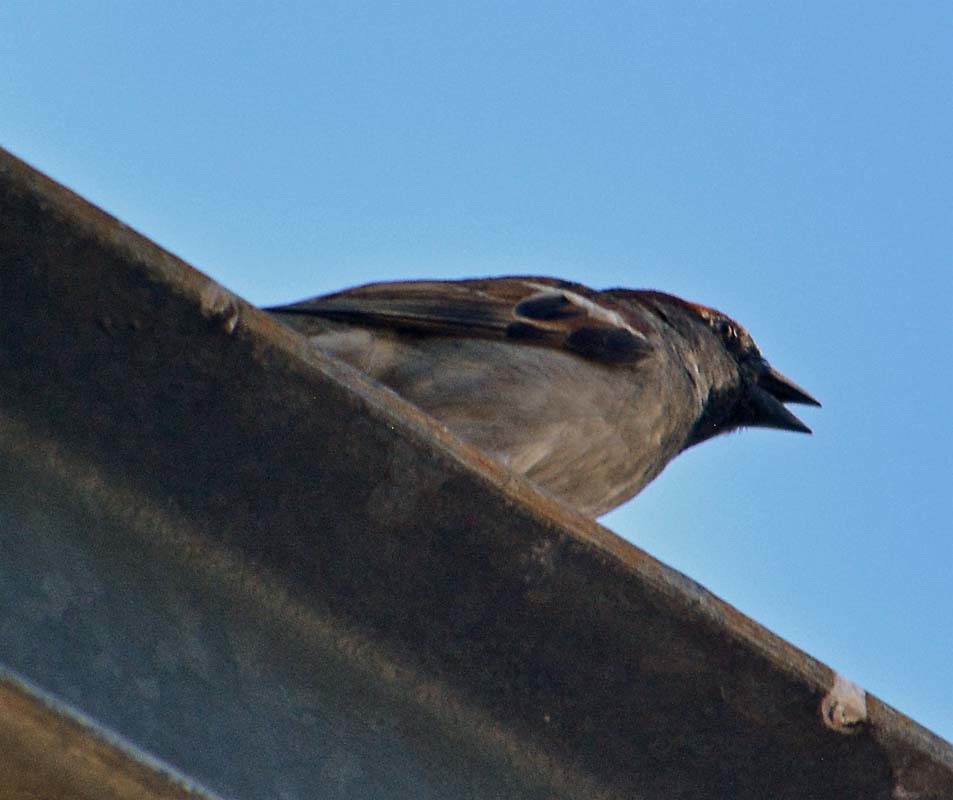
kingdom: Animalia
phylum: Chordata
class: Aves
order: Passeriformes
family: Passeridae
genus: Passer
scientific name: Passer domesticus
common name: House sparrow
